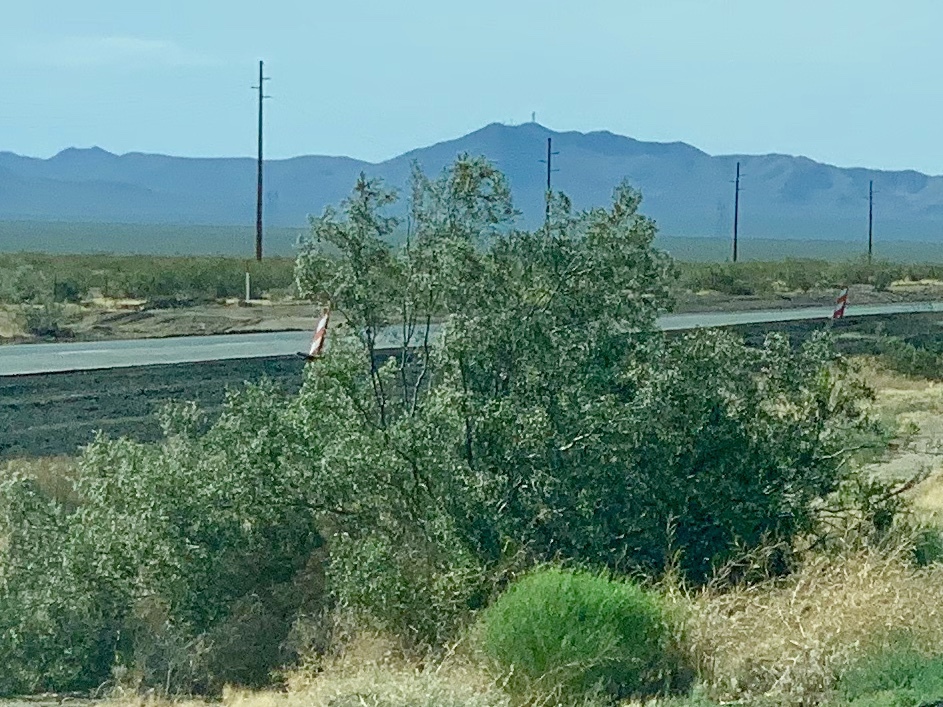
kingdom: Plantae
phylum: Tracheophyta
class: Magnoliopsida
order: Zygophyllales
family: Zygophyllaceae
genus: Larrea
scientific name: Larrea tridentata
